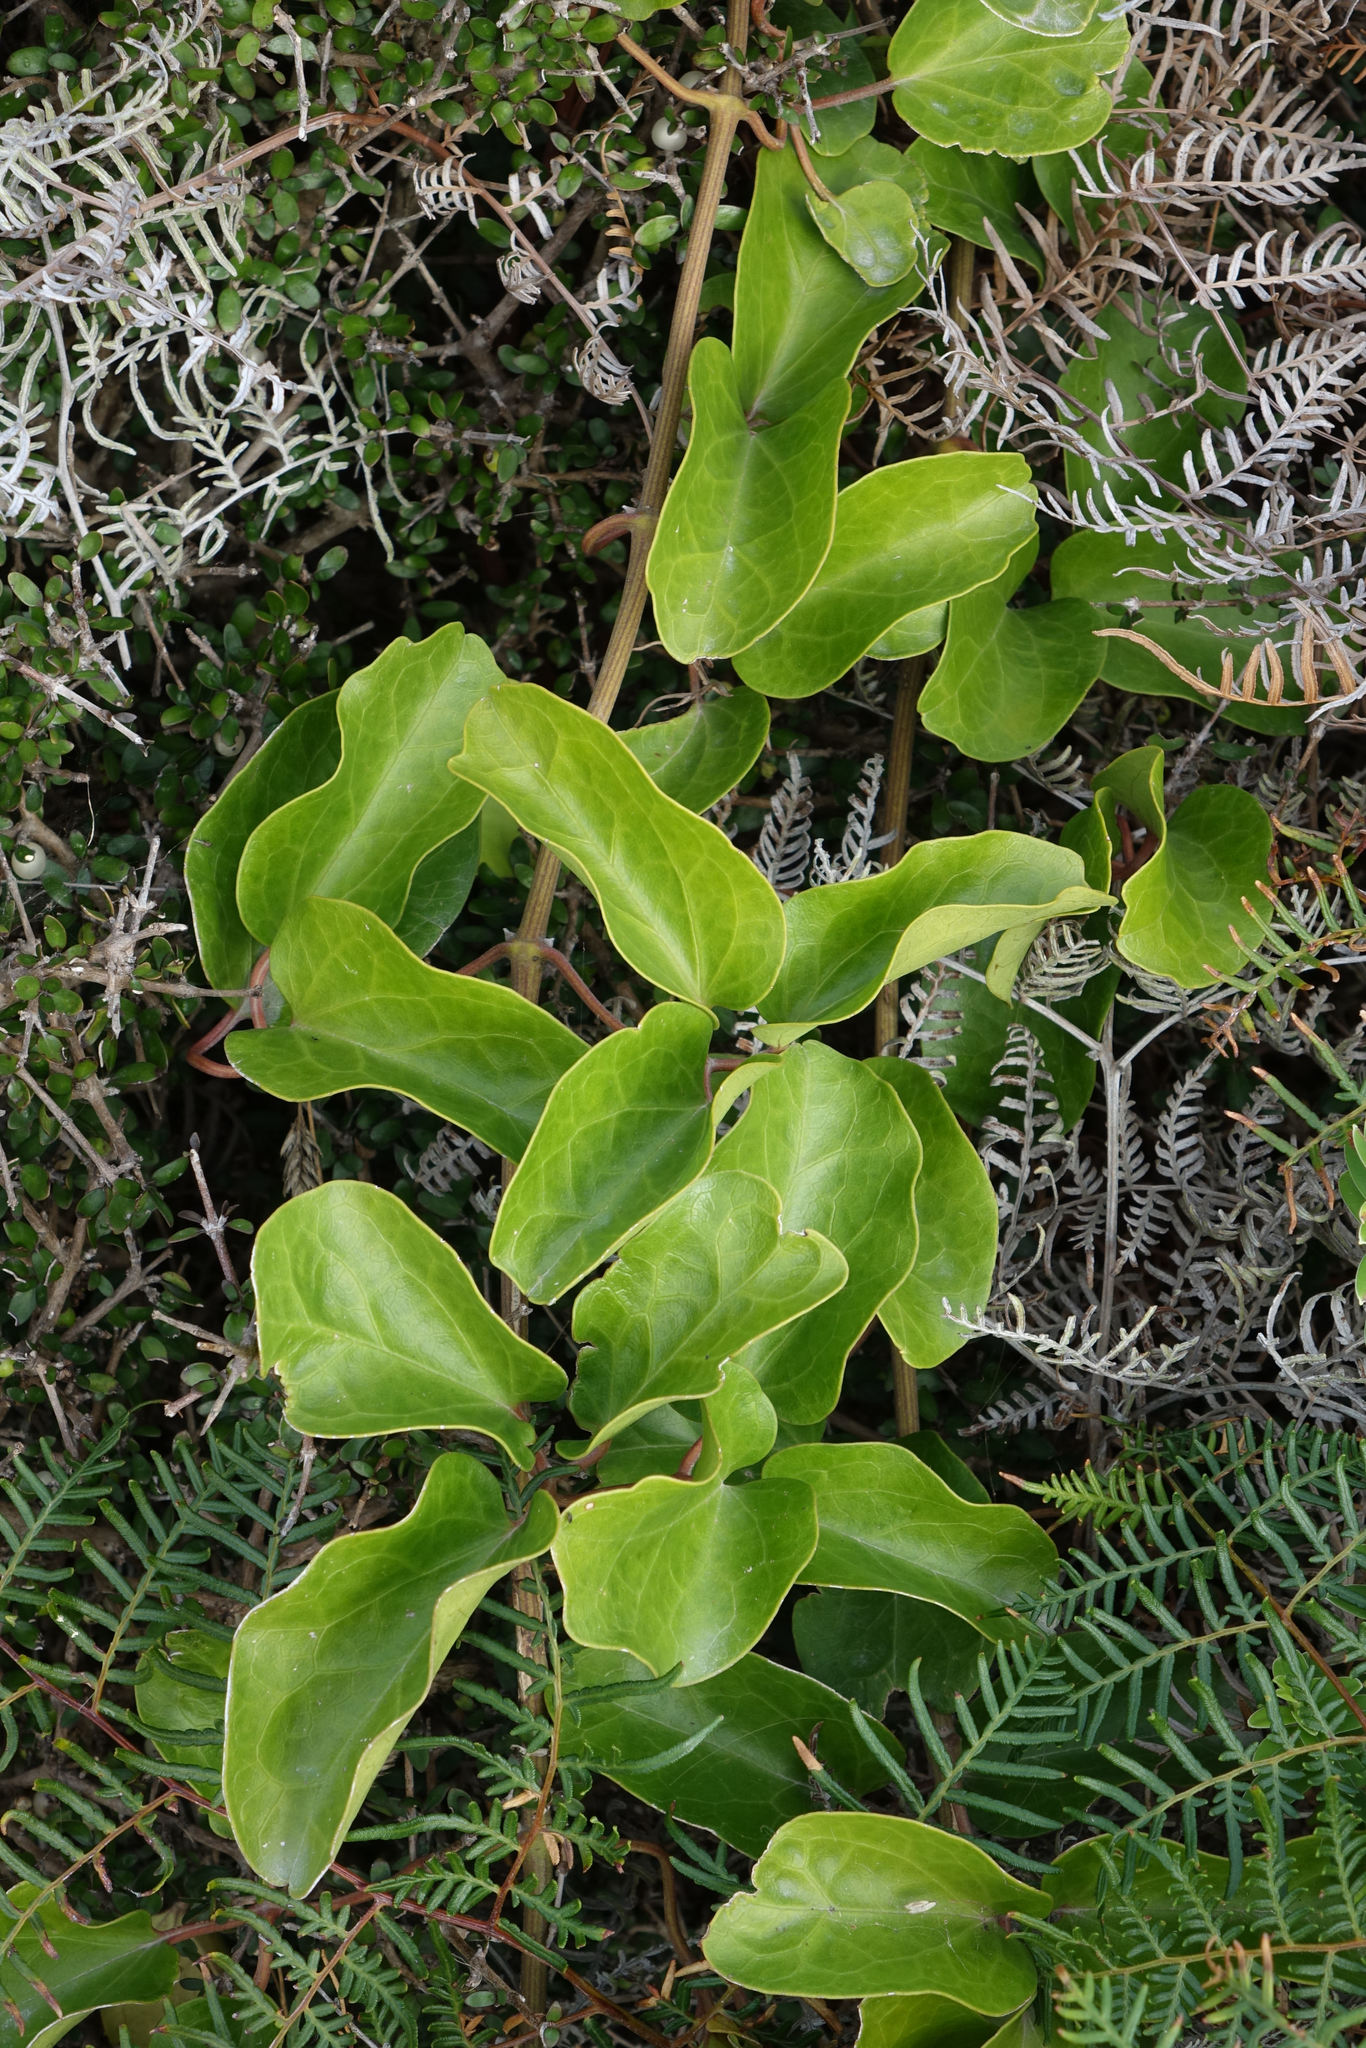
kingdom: Plantae
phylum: Tracheophyta
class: Magnoliopsida
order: Ranunculales
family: Ranunculaceae
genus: Clematis
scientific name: Clematis paniculata
